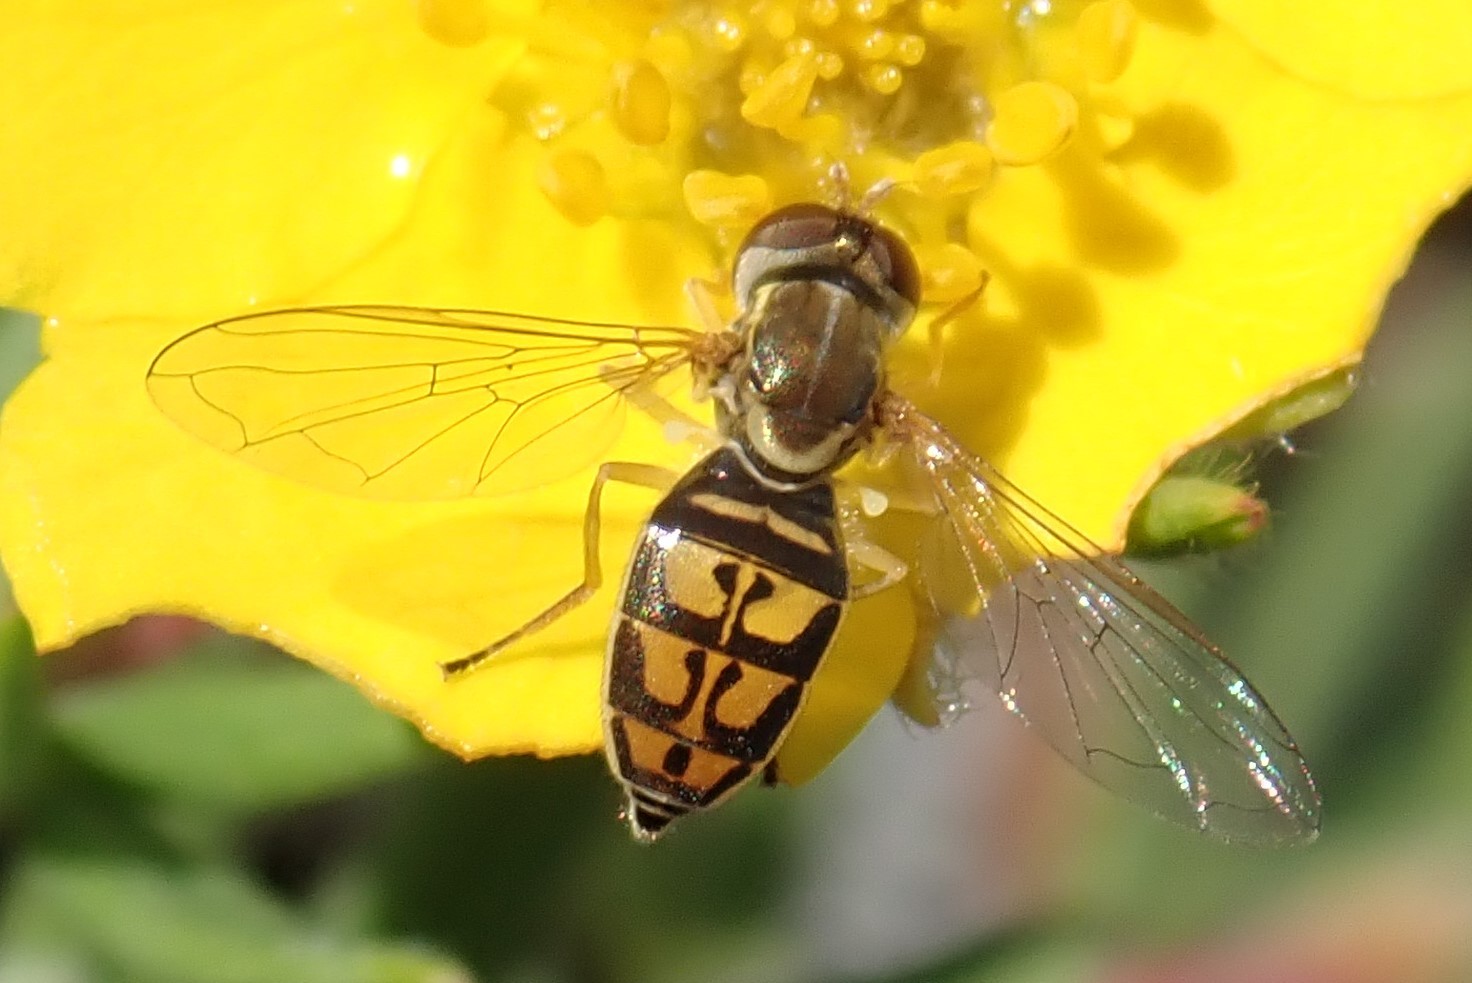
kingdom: Animalia
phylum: Arthropoda
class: Insecta
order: Diptera
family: Syrphidae
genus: Toxomerus
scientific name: Toxomerus marginatus
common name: Syrphid fly
